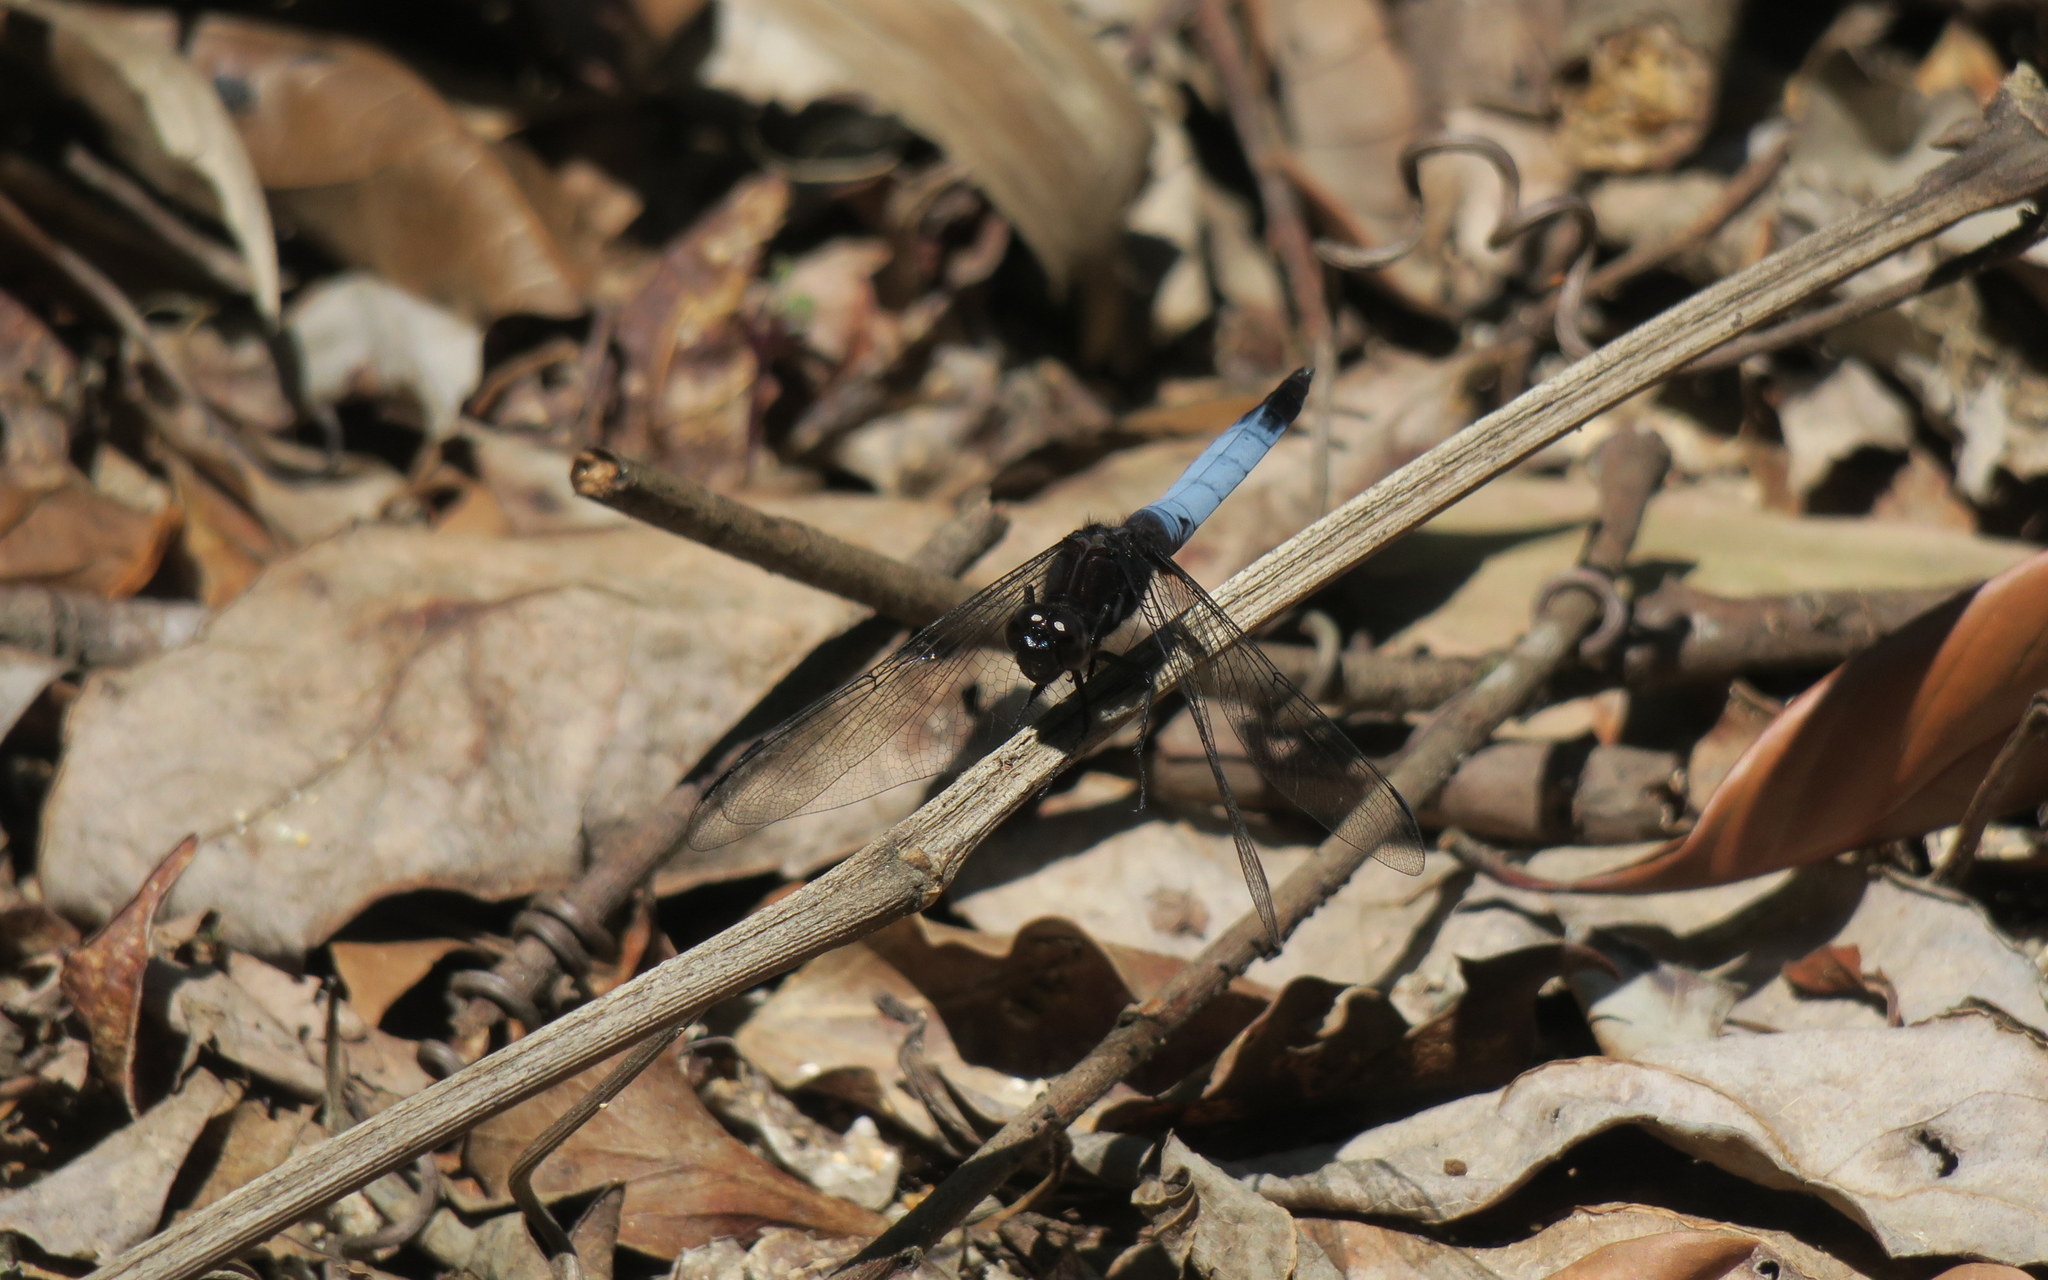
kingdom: Animalia
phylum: Arthropoda
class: Insecta
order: Odonata
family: Libellulidae
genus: Orthetrum
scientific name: Orthetrum triangulare
